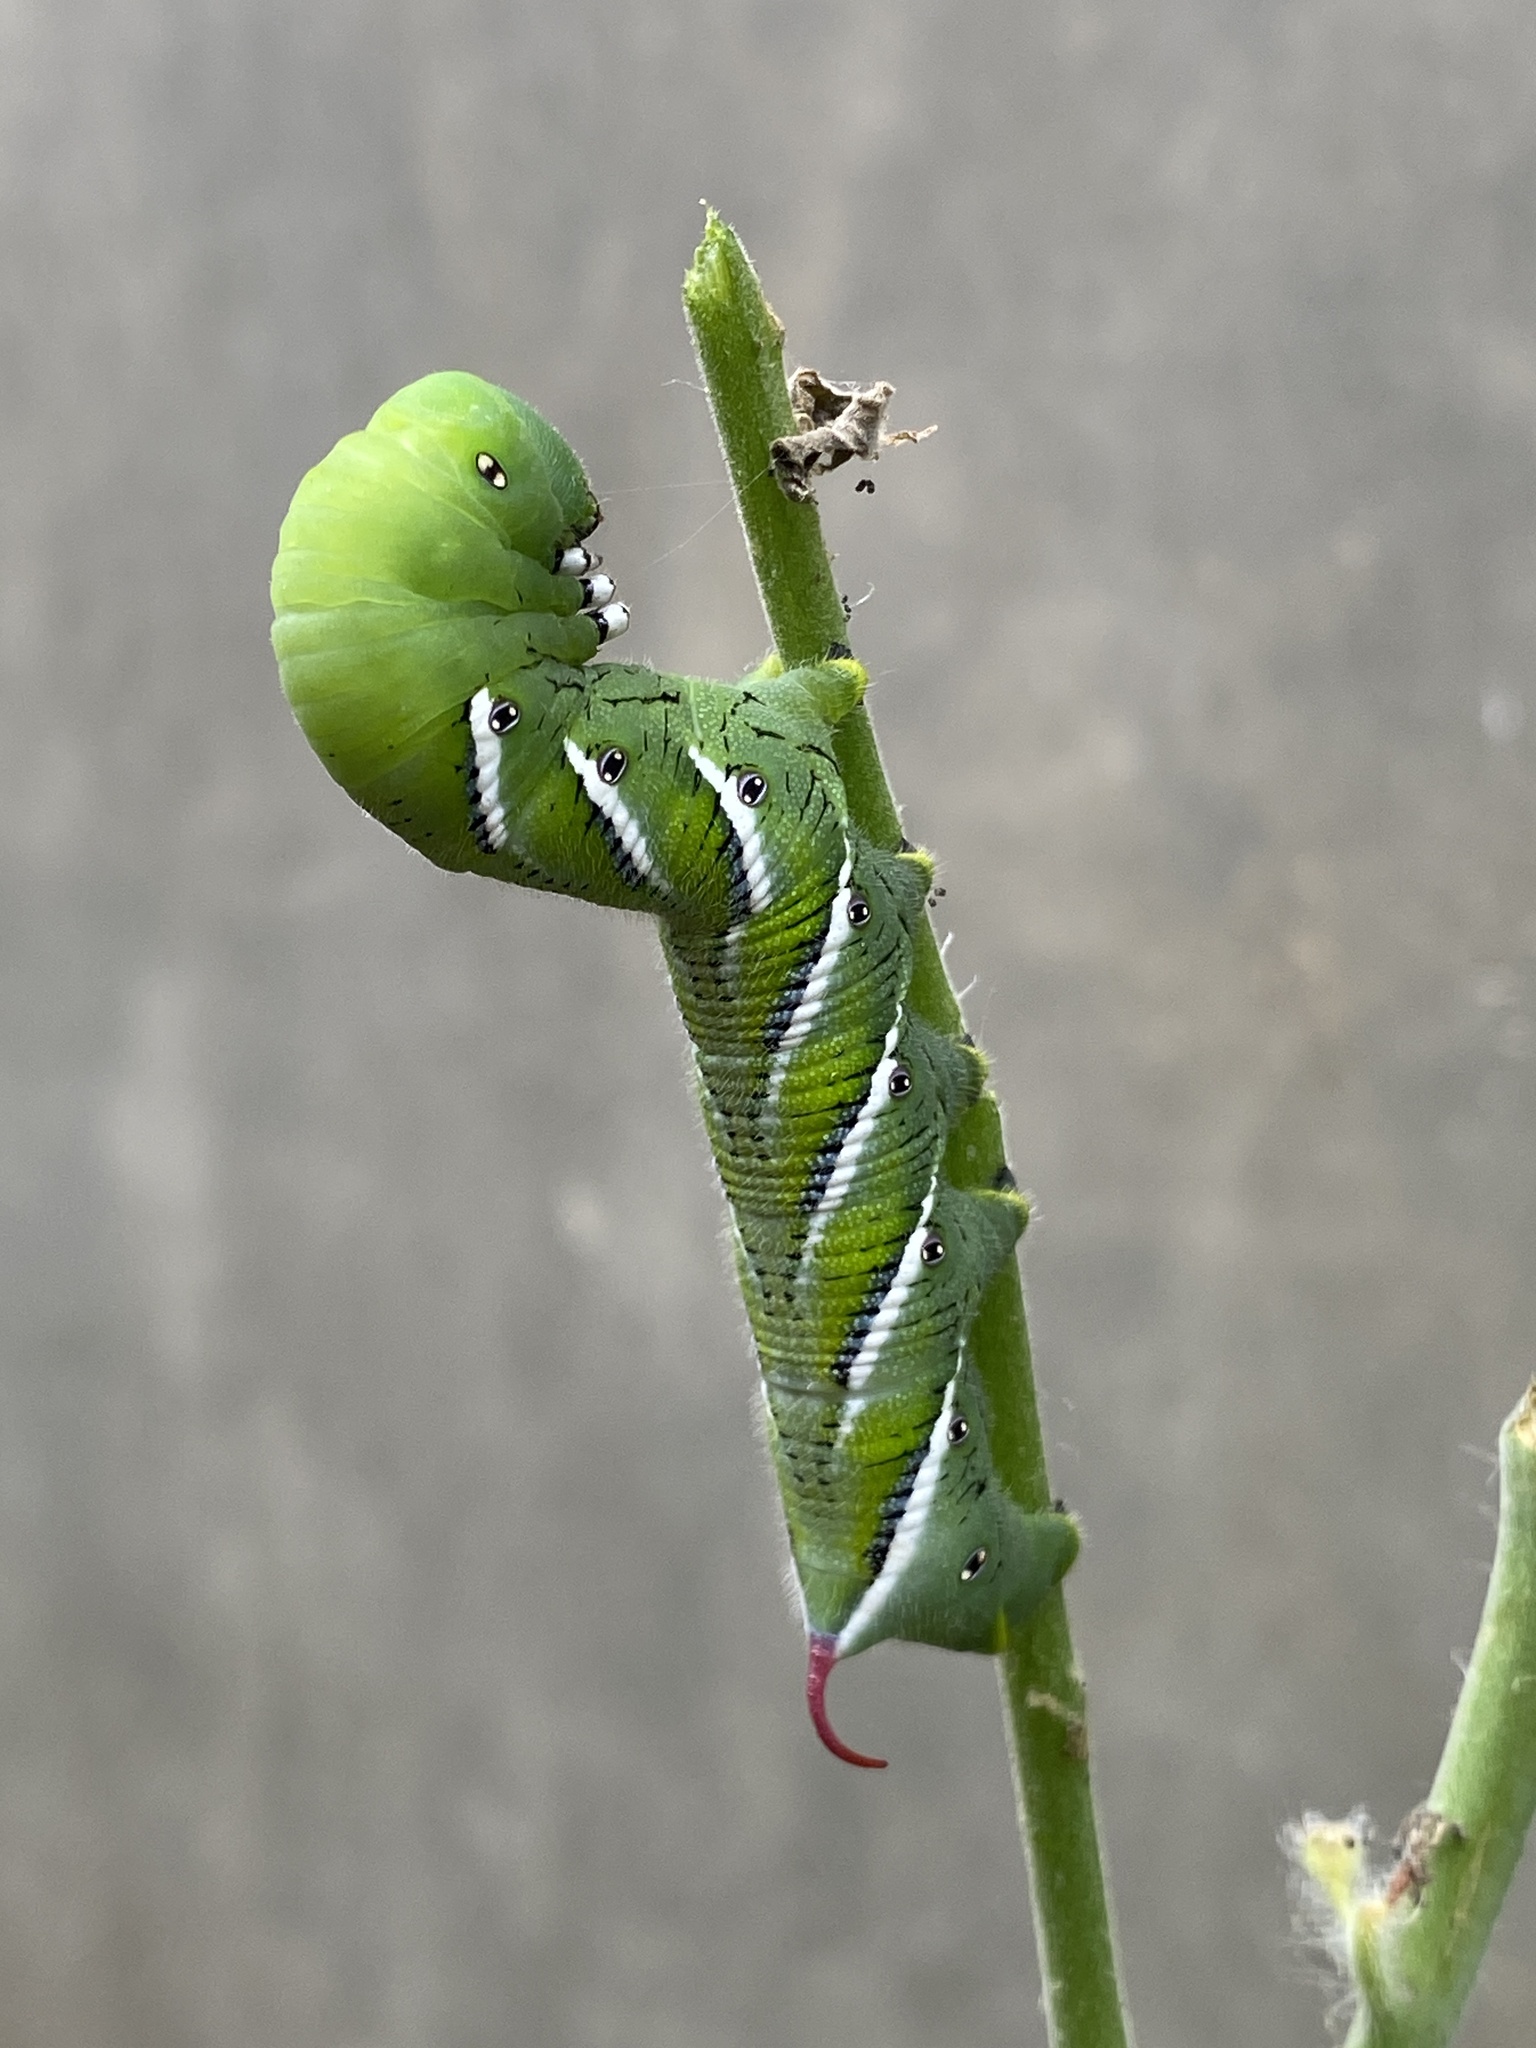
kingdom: Animalia
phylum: Arthropoda
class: Insecta
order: Lepidoptera
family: Sphingidae
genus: Manduca
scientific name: Manduca sexta
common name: Carolina sphinx
